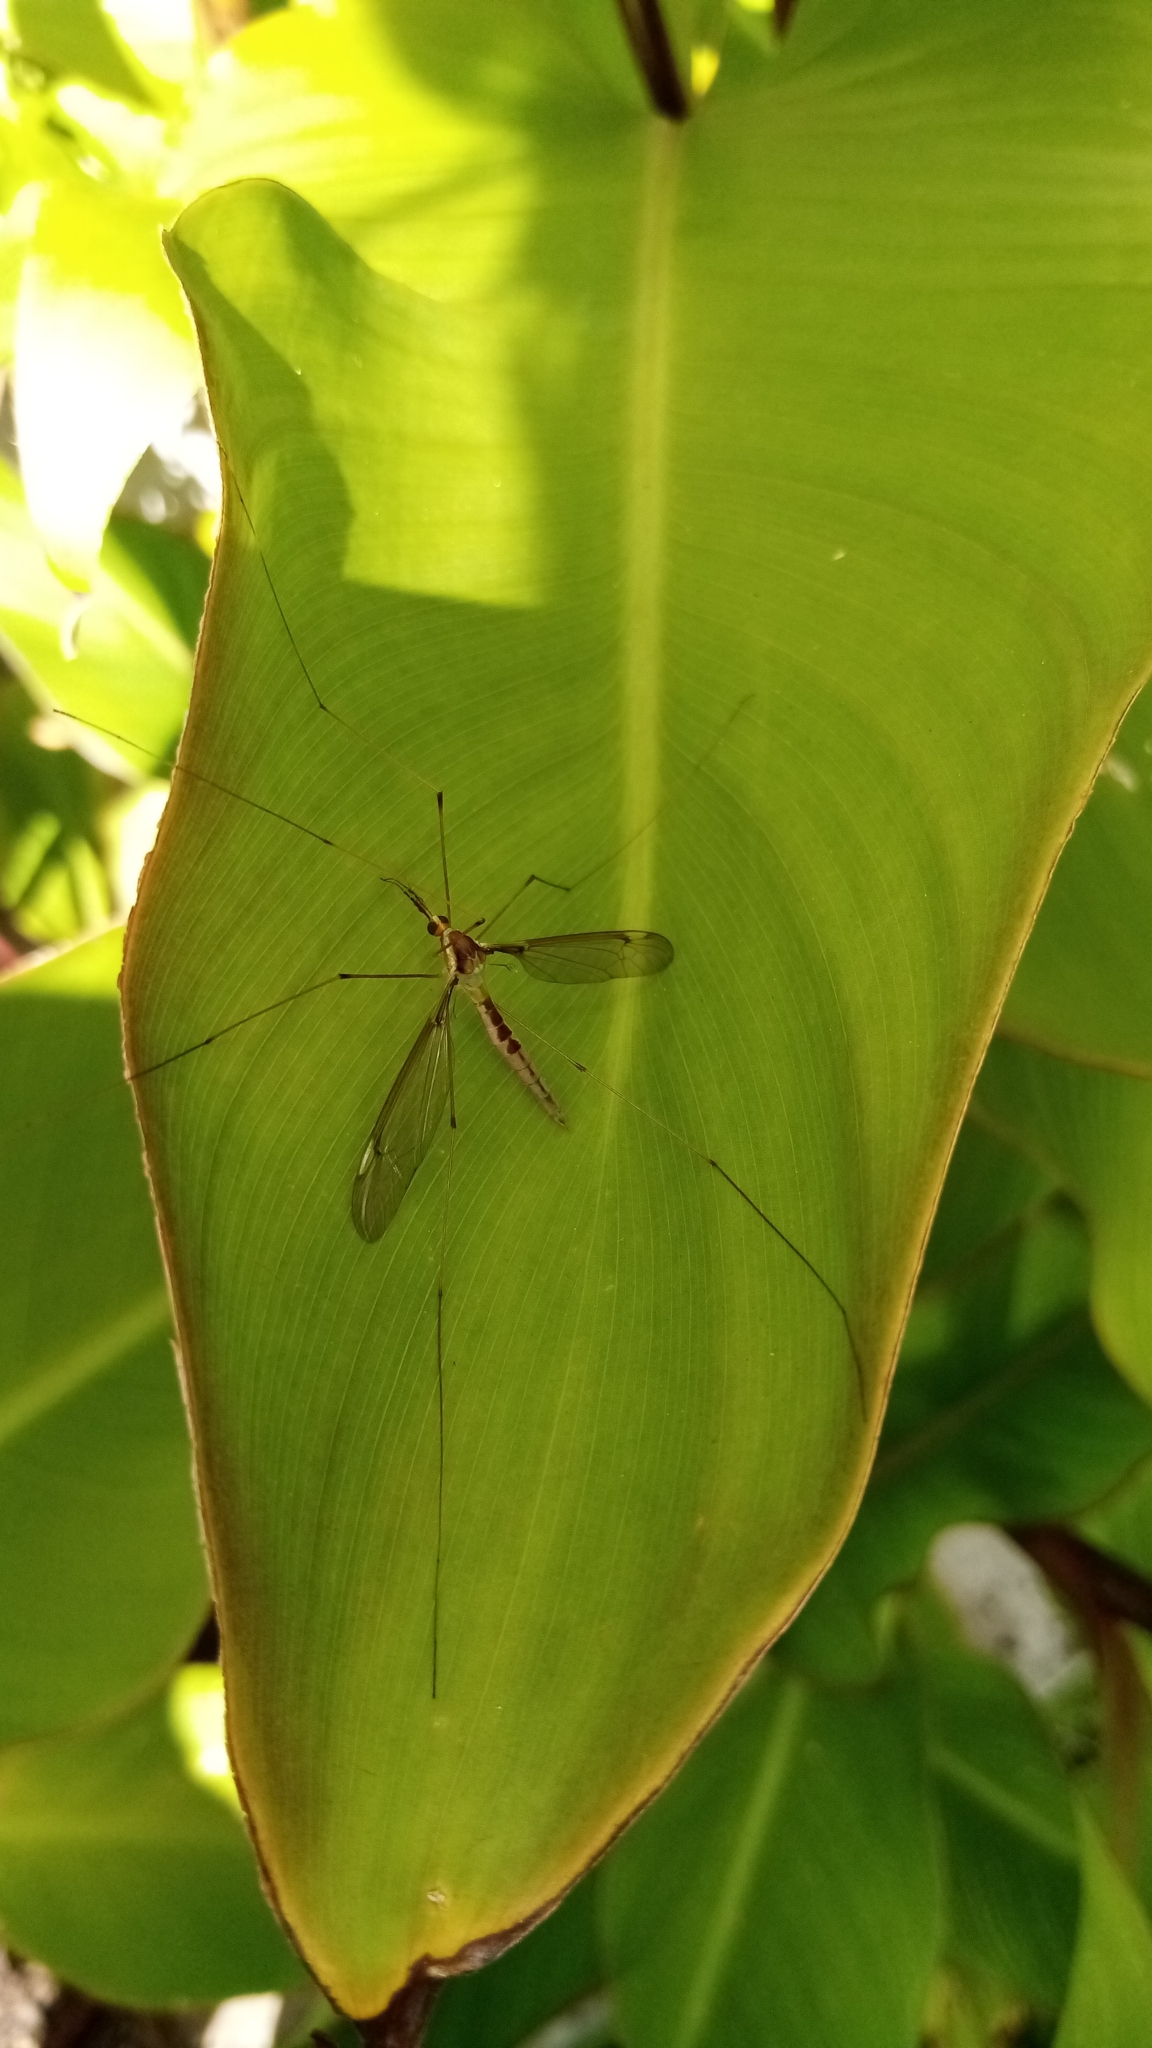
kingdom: Animalia
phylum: Arthropoda
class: Insecta
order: Diptera
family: Tipulidae
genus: Leptotarsus
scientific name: Leptotarsus albistigma
